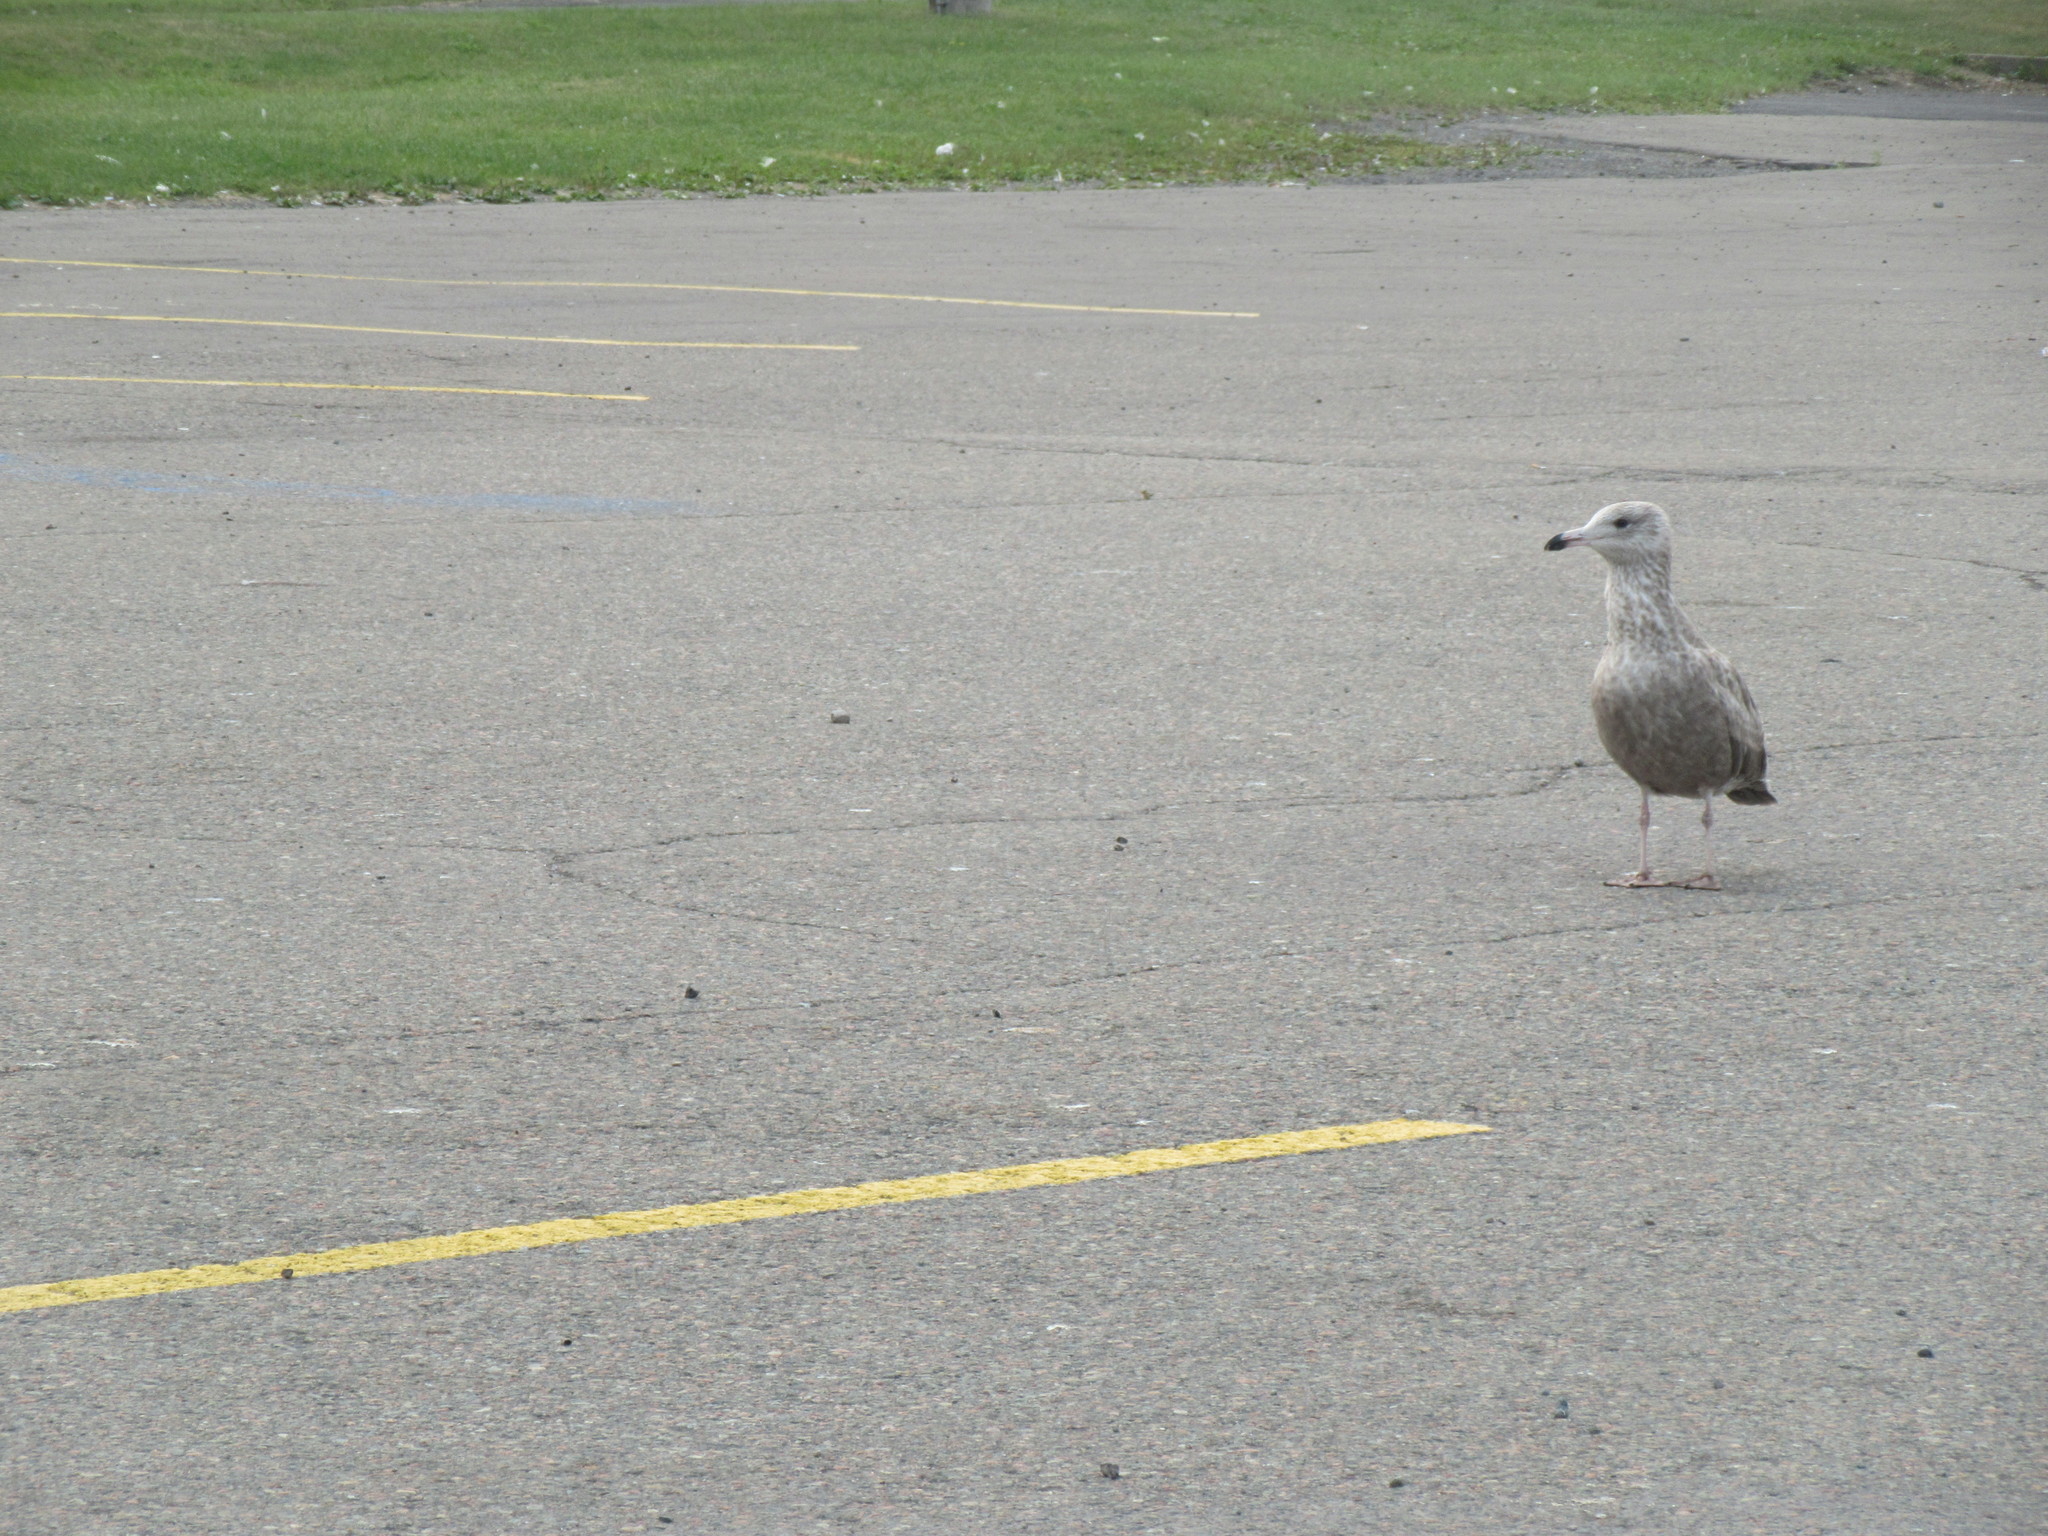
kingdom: Animalia
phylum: Chordata
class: Aves
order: Charadriiformes
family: Laridae
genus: Larus
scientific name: Larus argentatus
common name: Herring gull
